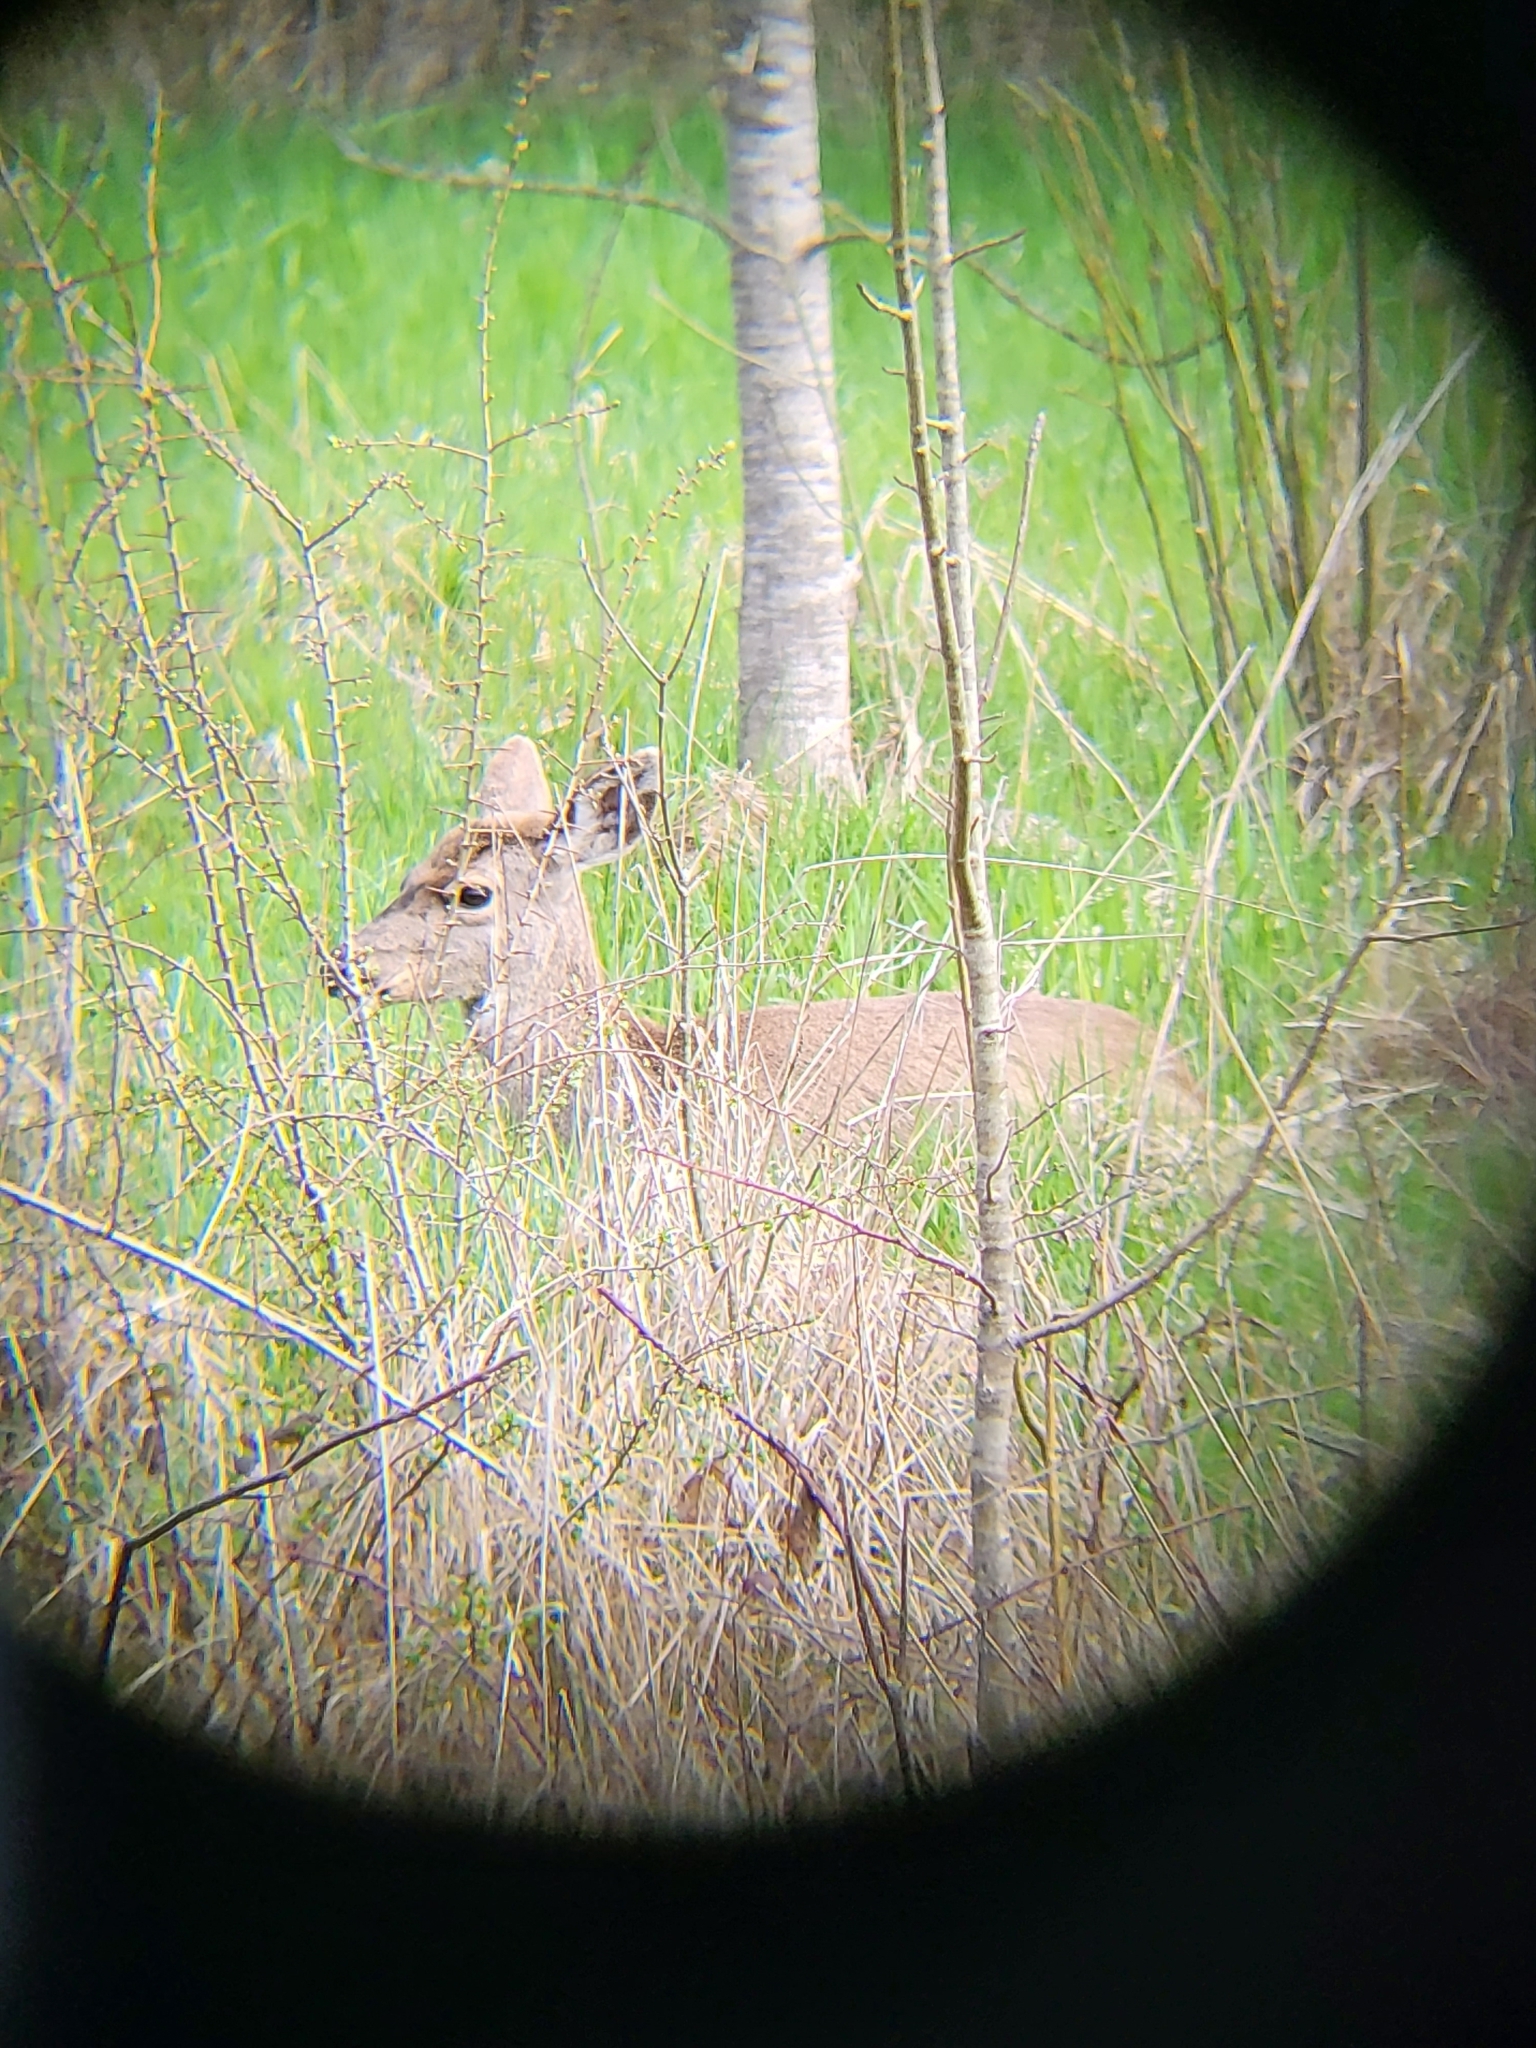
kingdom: Animalia
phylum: Chordata
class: Mammalia
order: Artiodactyla
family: Cervidae
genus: Odocoileus
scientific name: Odocoileus hemionus
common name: Mule deer
